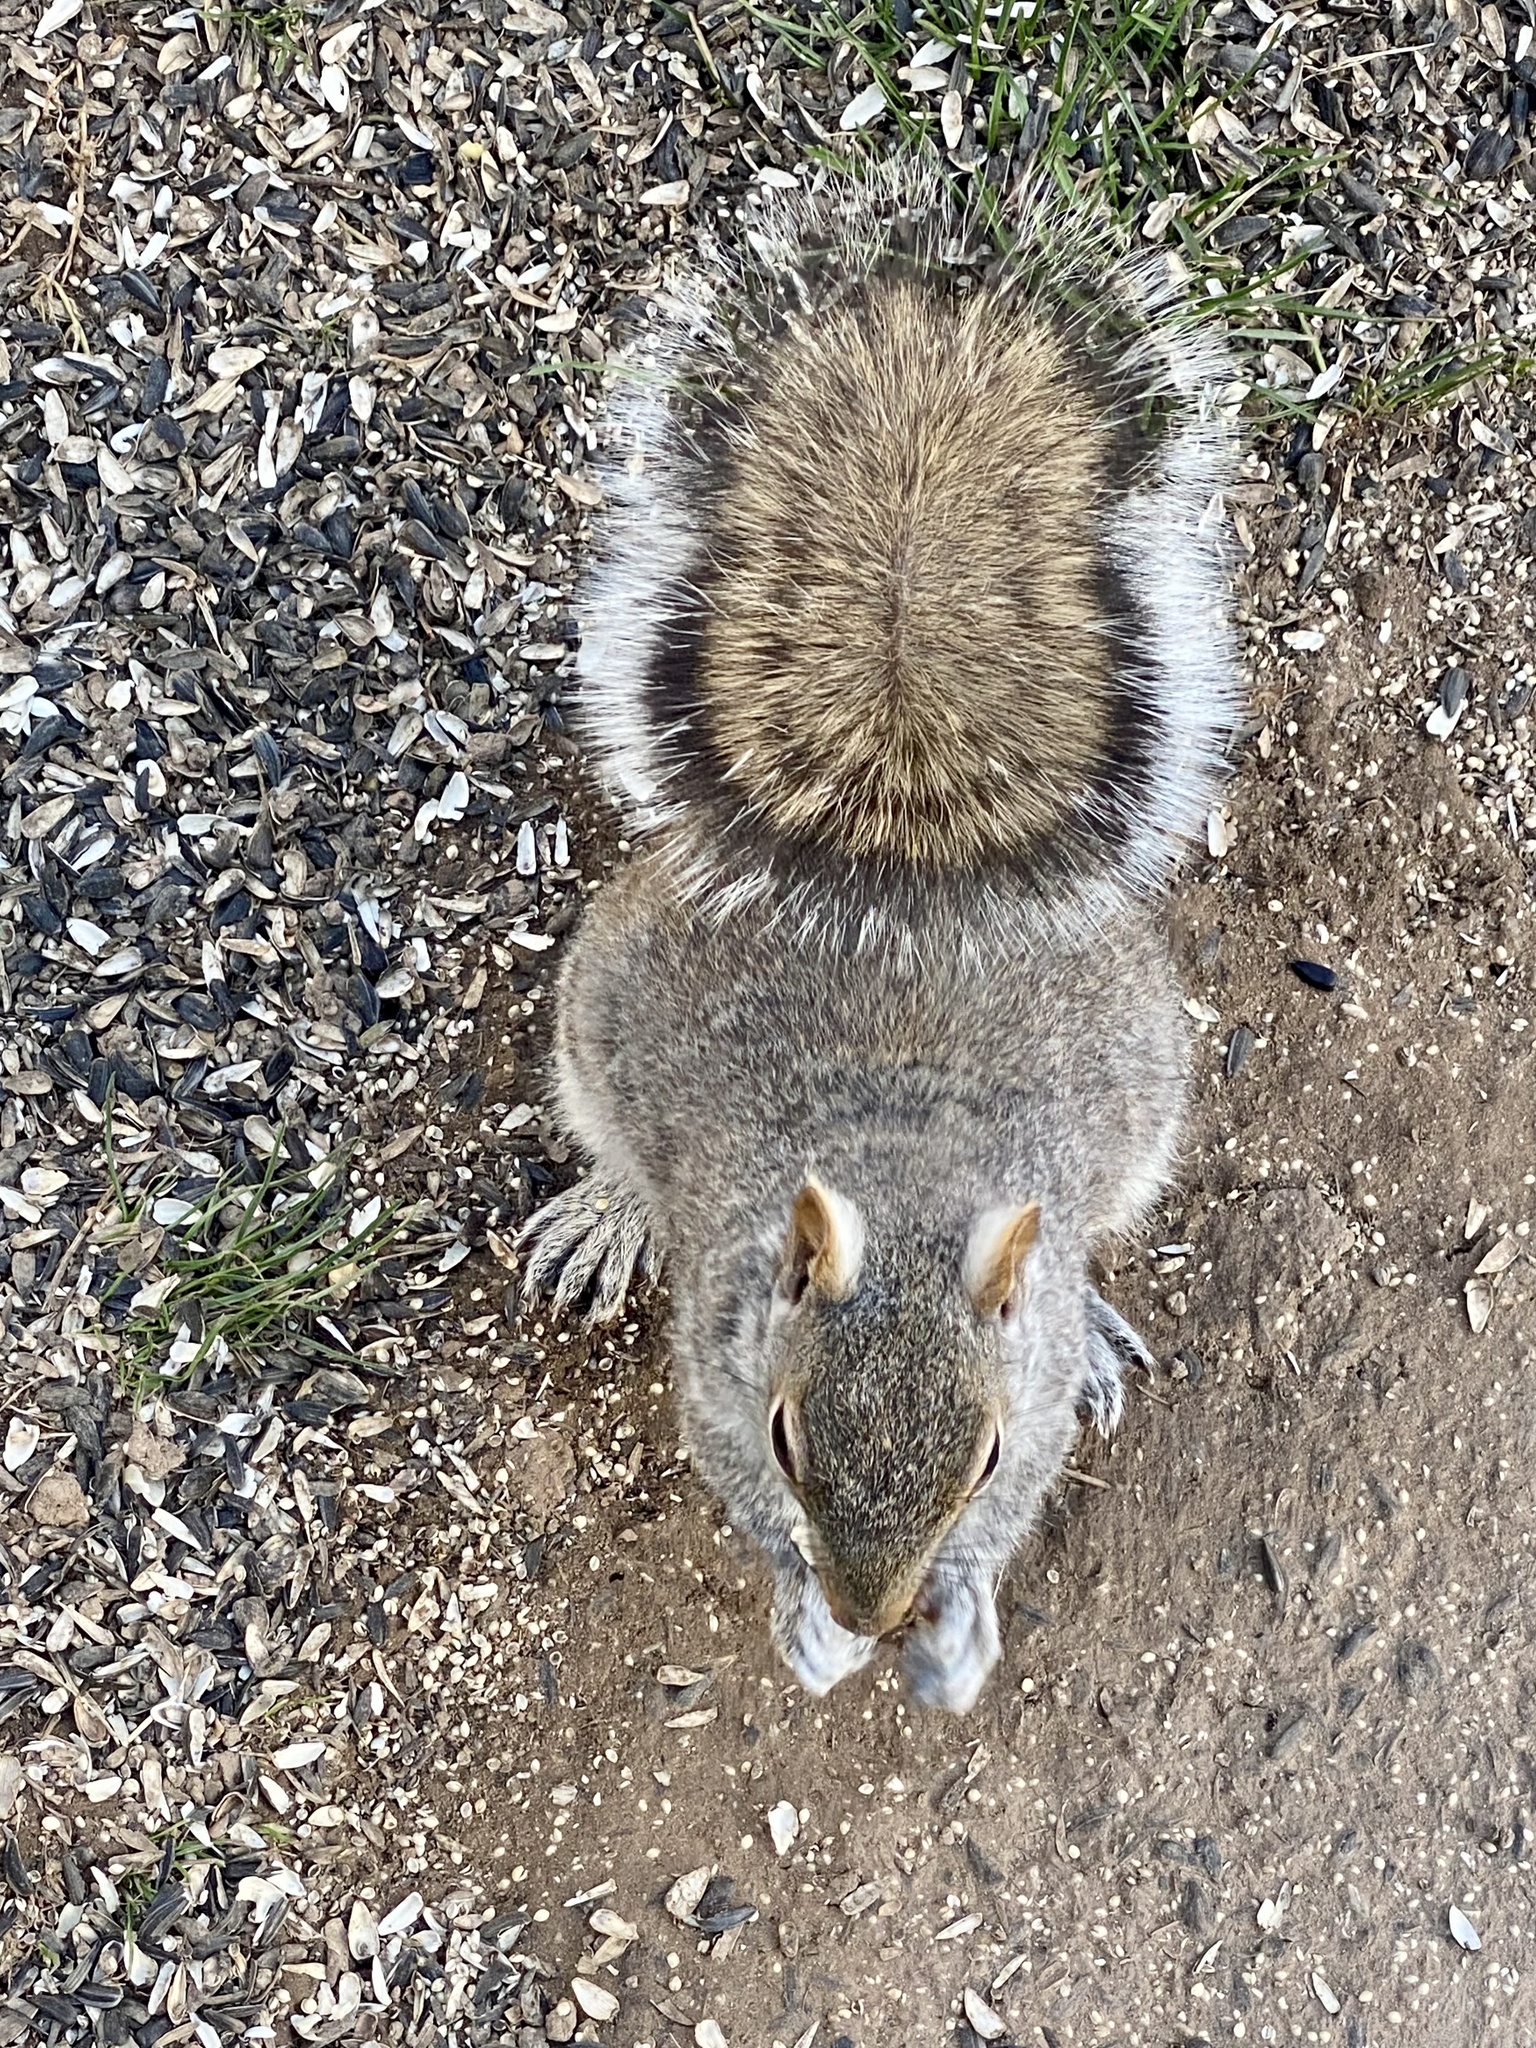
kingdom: Animalia
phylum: Chordata
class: Mammalia
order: Rodentia
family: Sciuridae
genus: Sciurus
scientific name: Sciurus carolinensis
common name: Eastern gray squirrel
